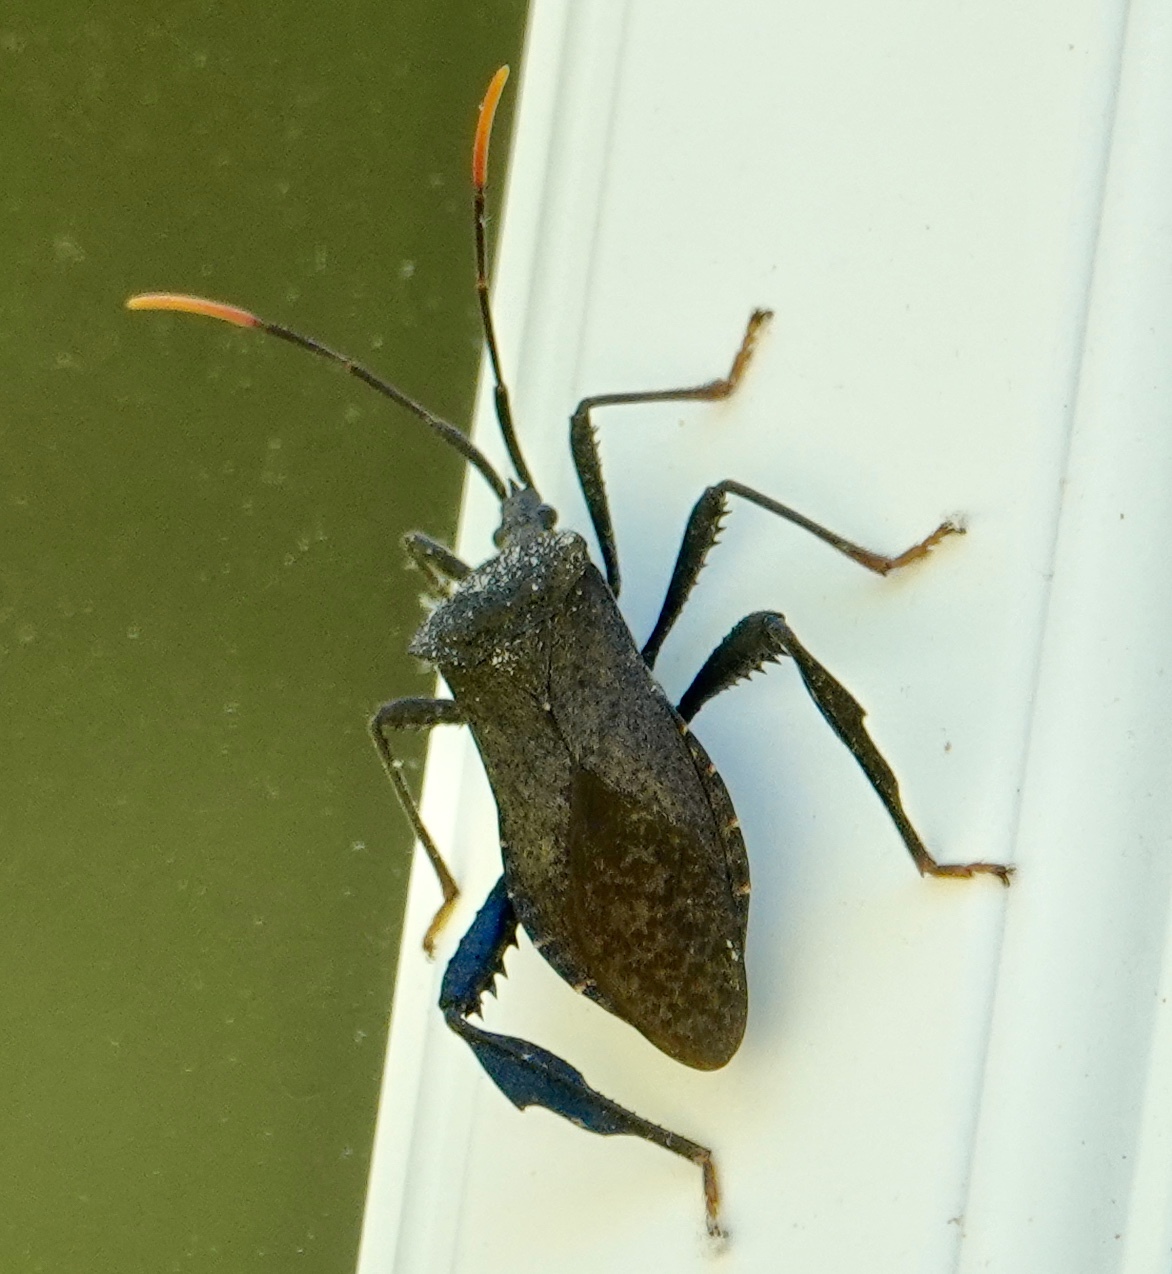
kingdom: Animalia
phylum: Arthropoda
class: Insecta
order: Hemiptera
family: Coreidae
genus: Acanthocephala
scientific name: Acanthocephala terminalis
